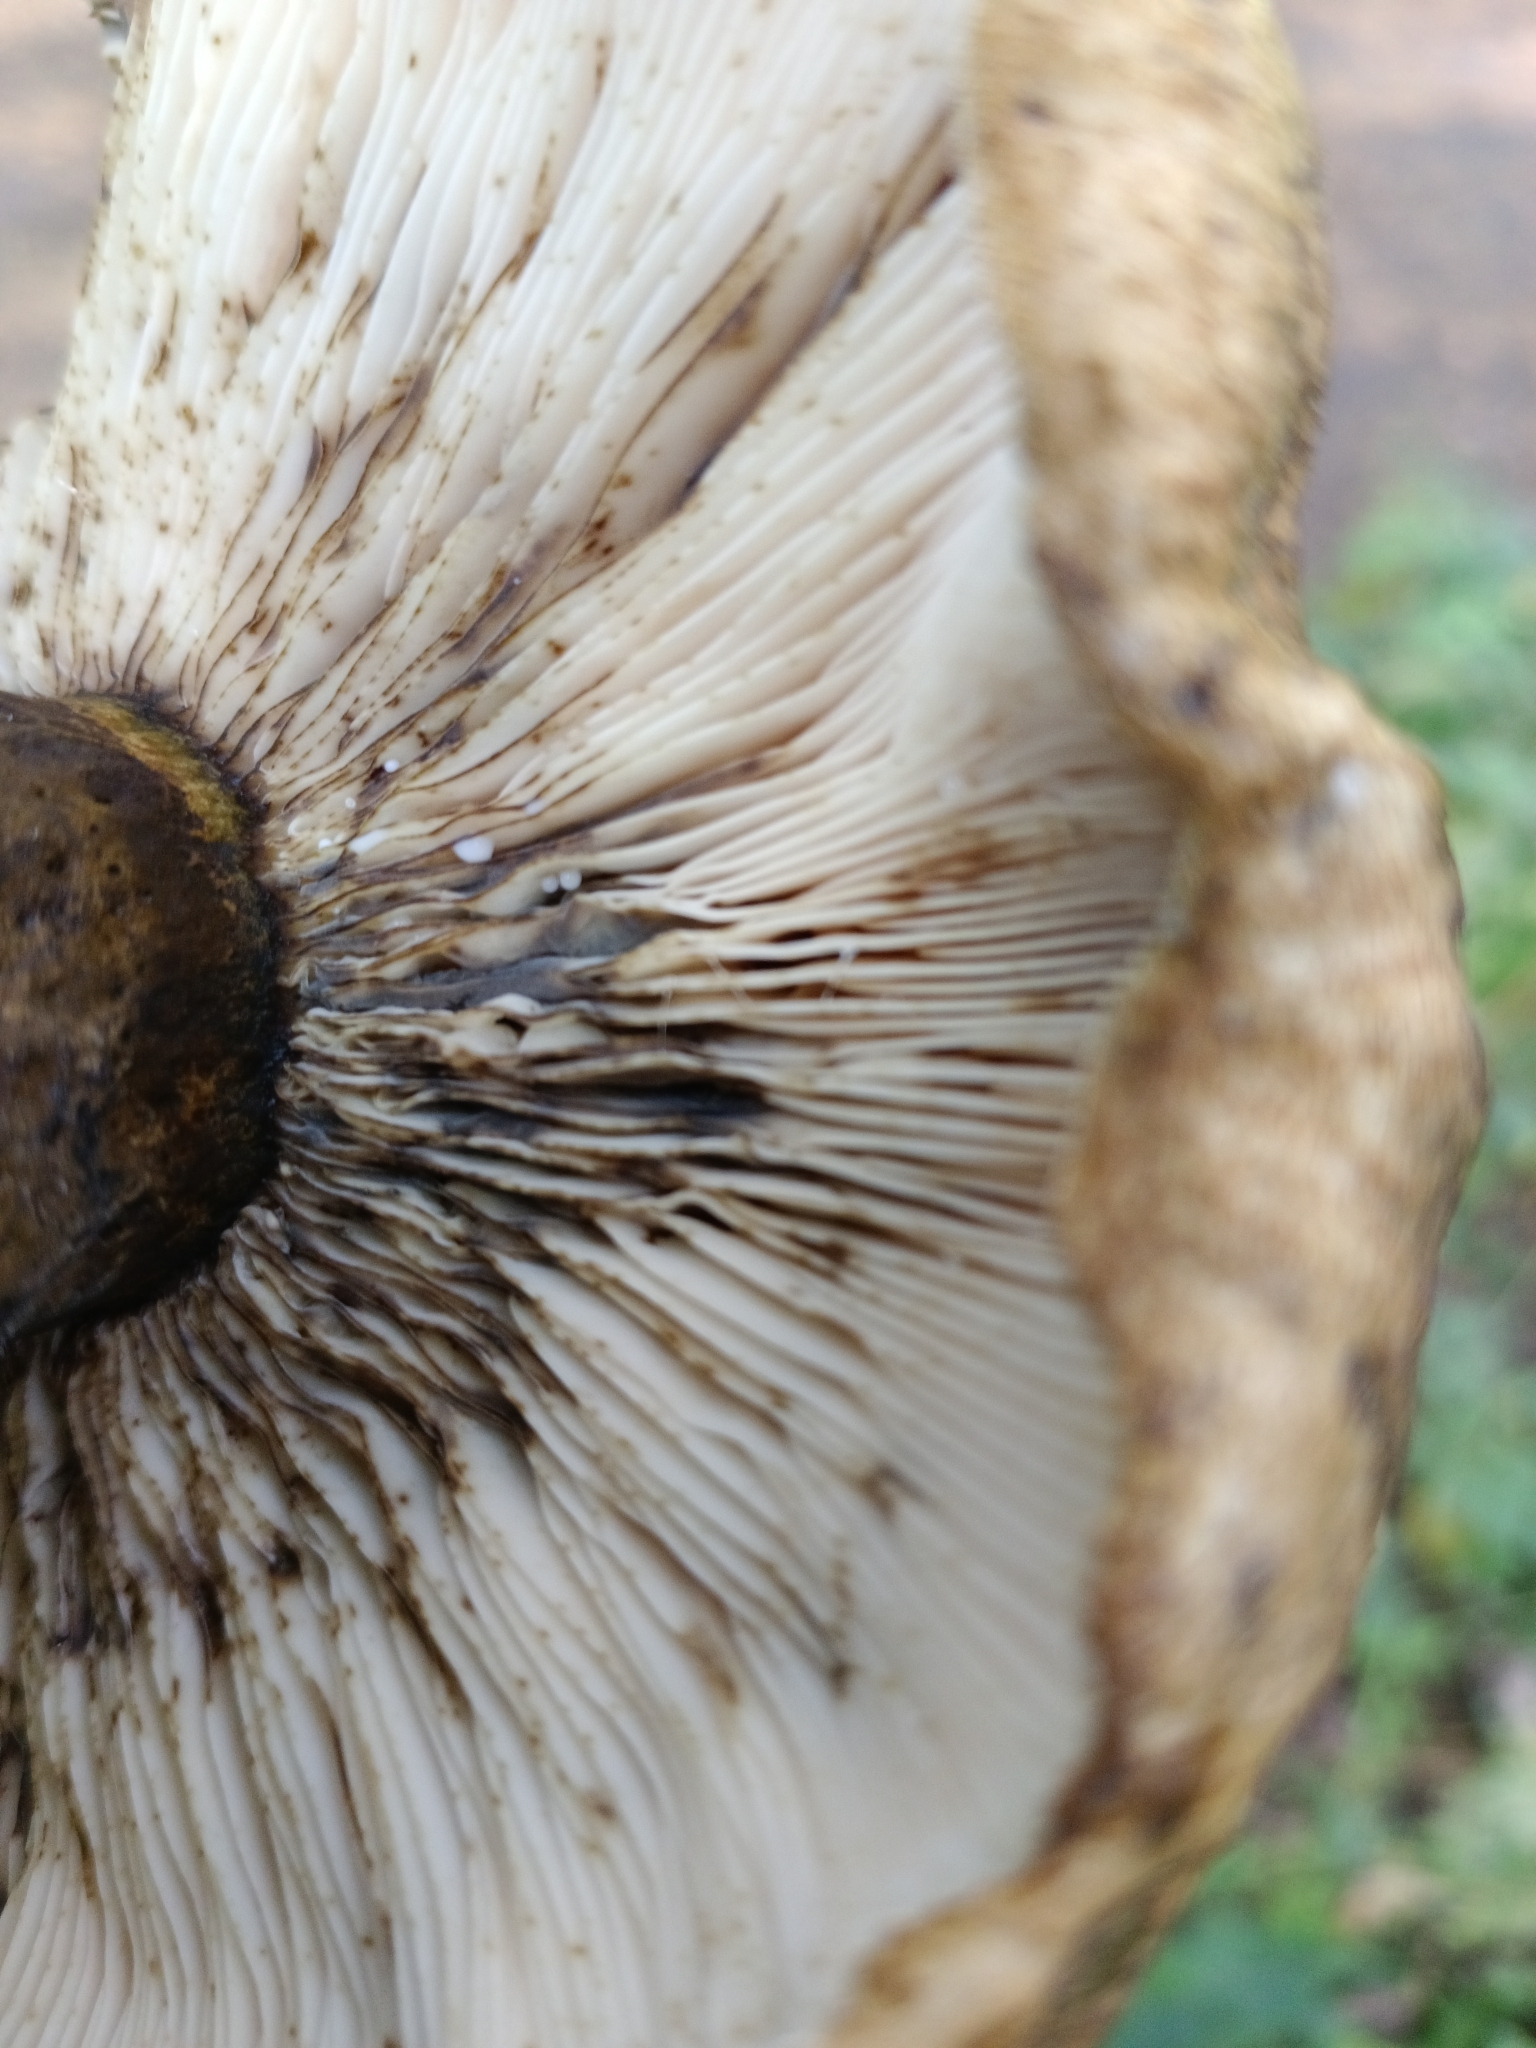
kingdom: Fungi
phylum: Basidiomycota
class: Agaricomycetes
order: Russulales
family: Russulaceae
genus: Lactarius
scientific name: Lactarius turpis
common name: Ugly milk-cap
